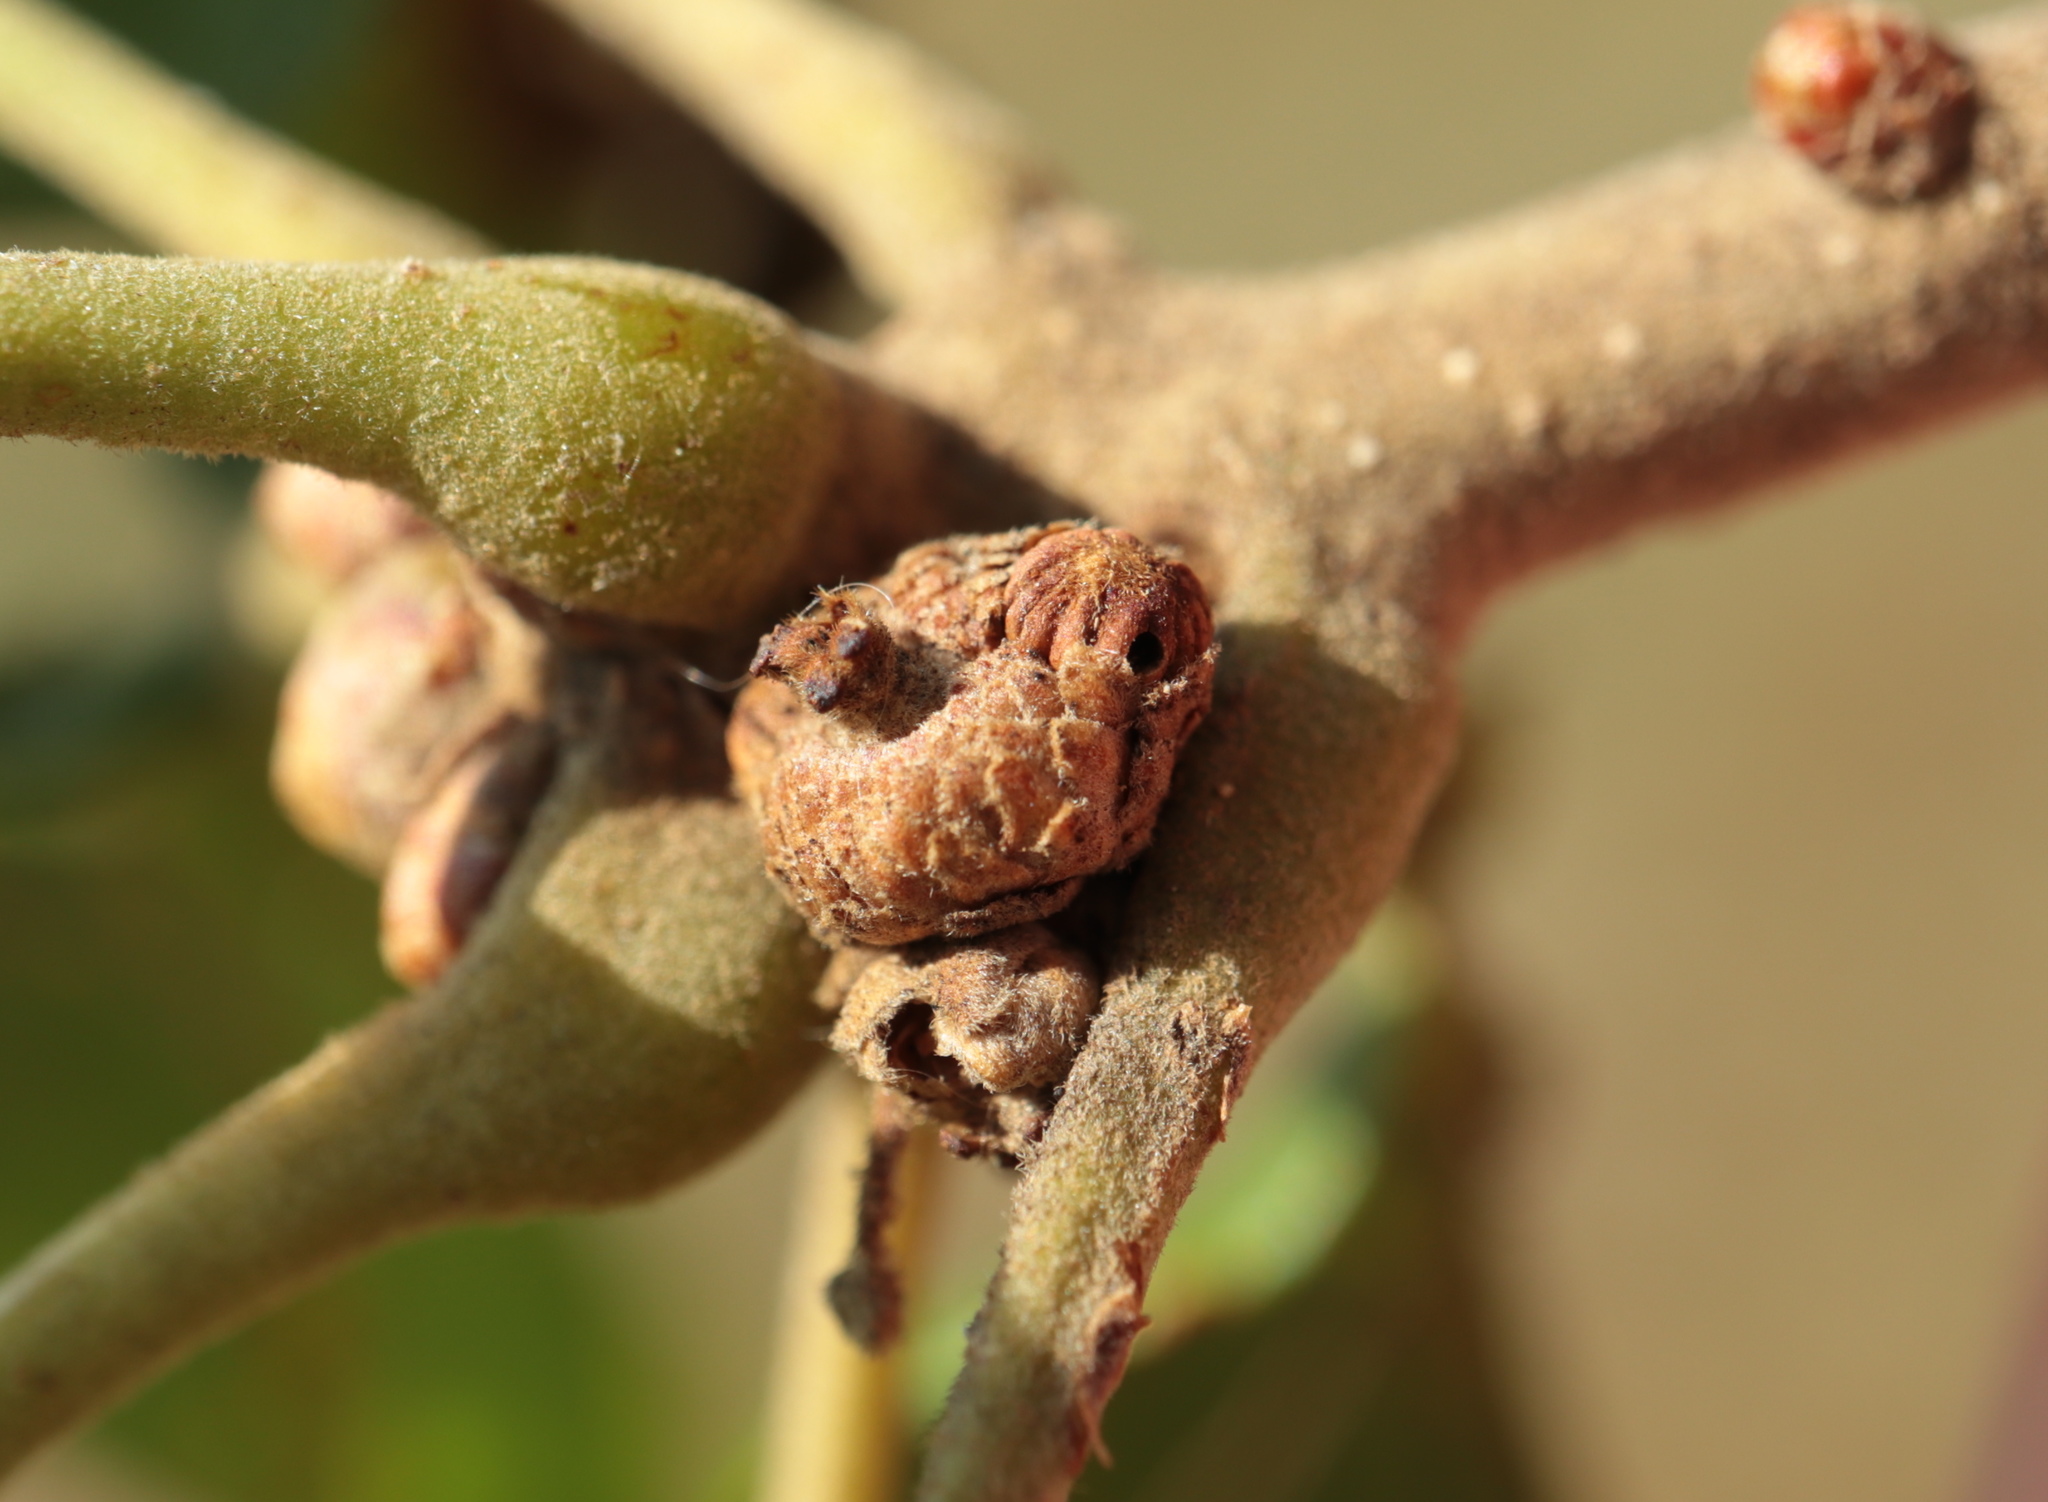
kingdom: Animalia
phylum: Arthropoda
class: Insecta
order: Hymenoptera
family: Cynipidae
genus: Callirhytis
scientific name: Callirhytis
